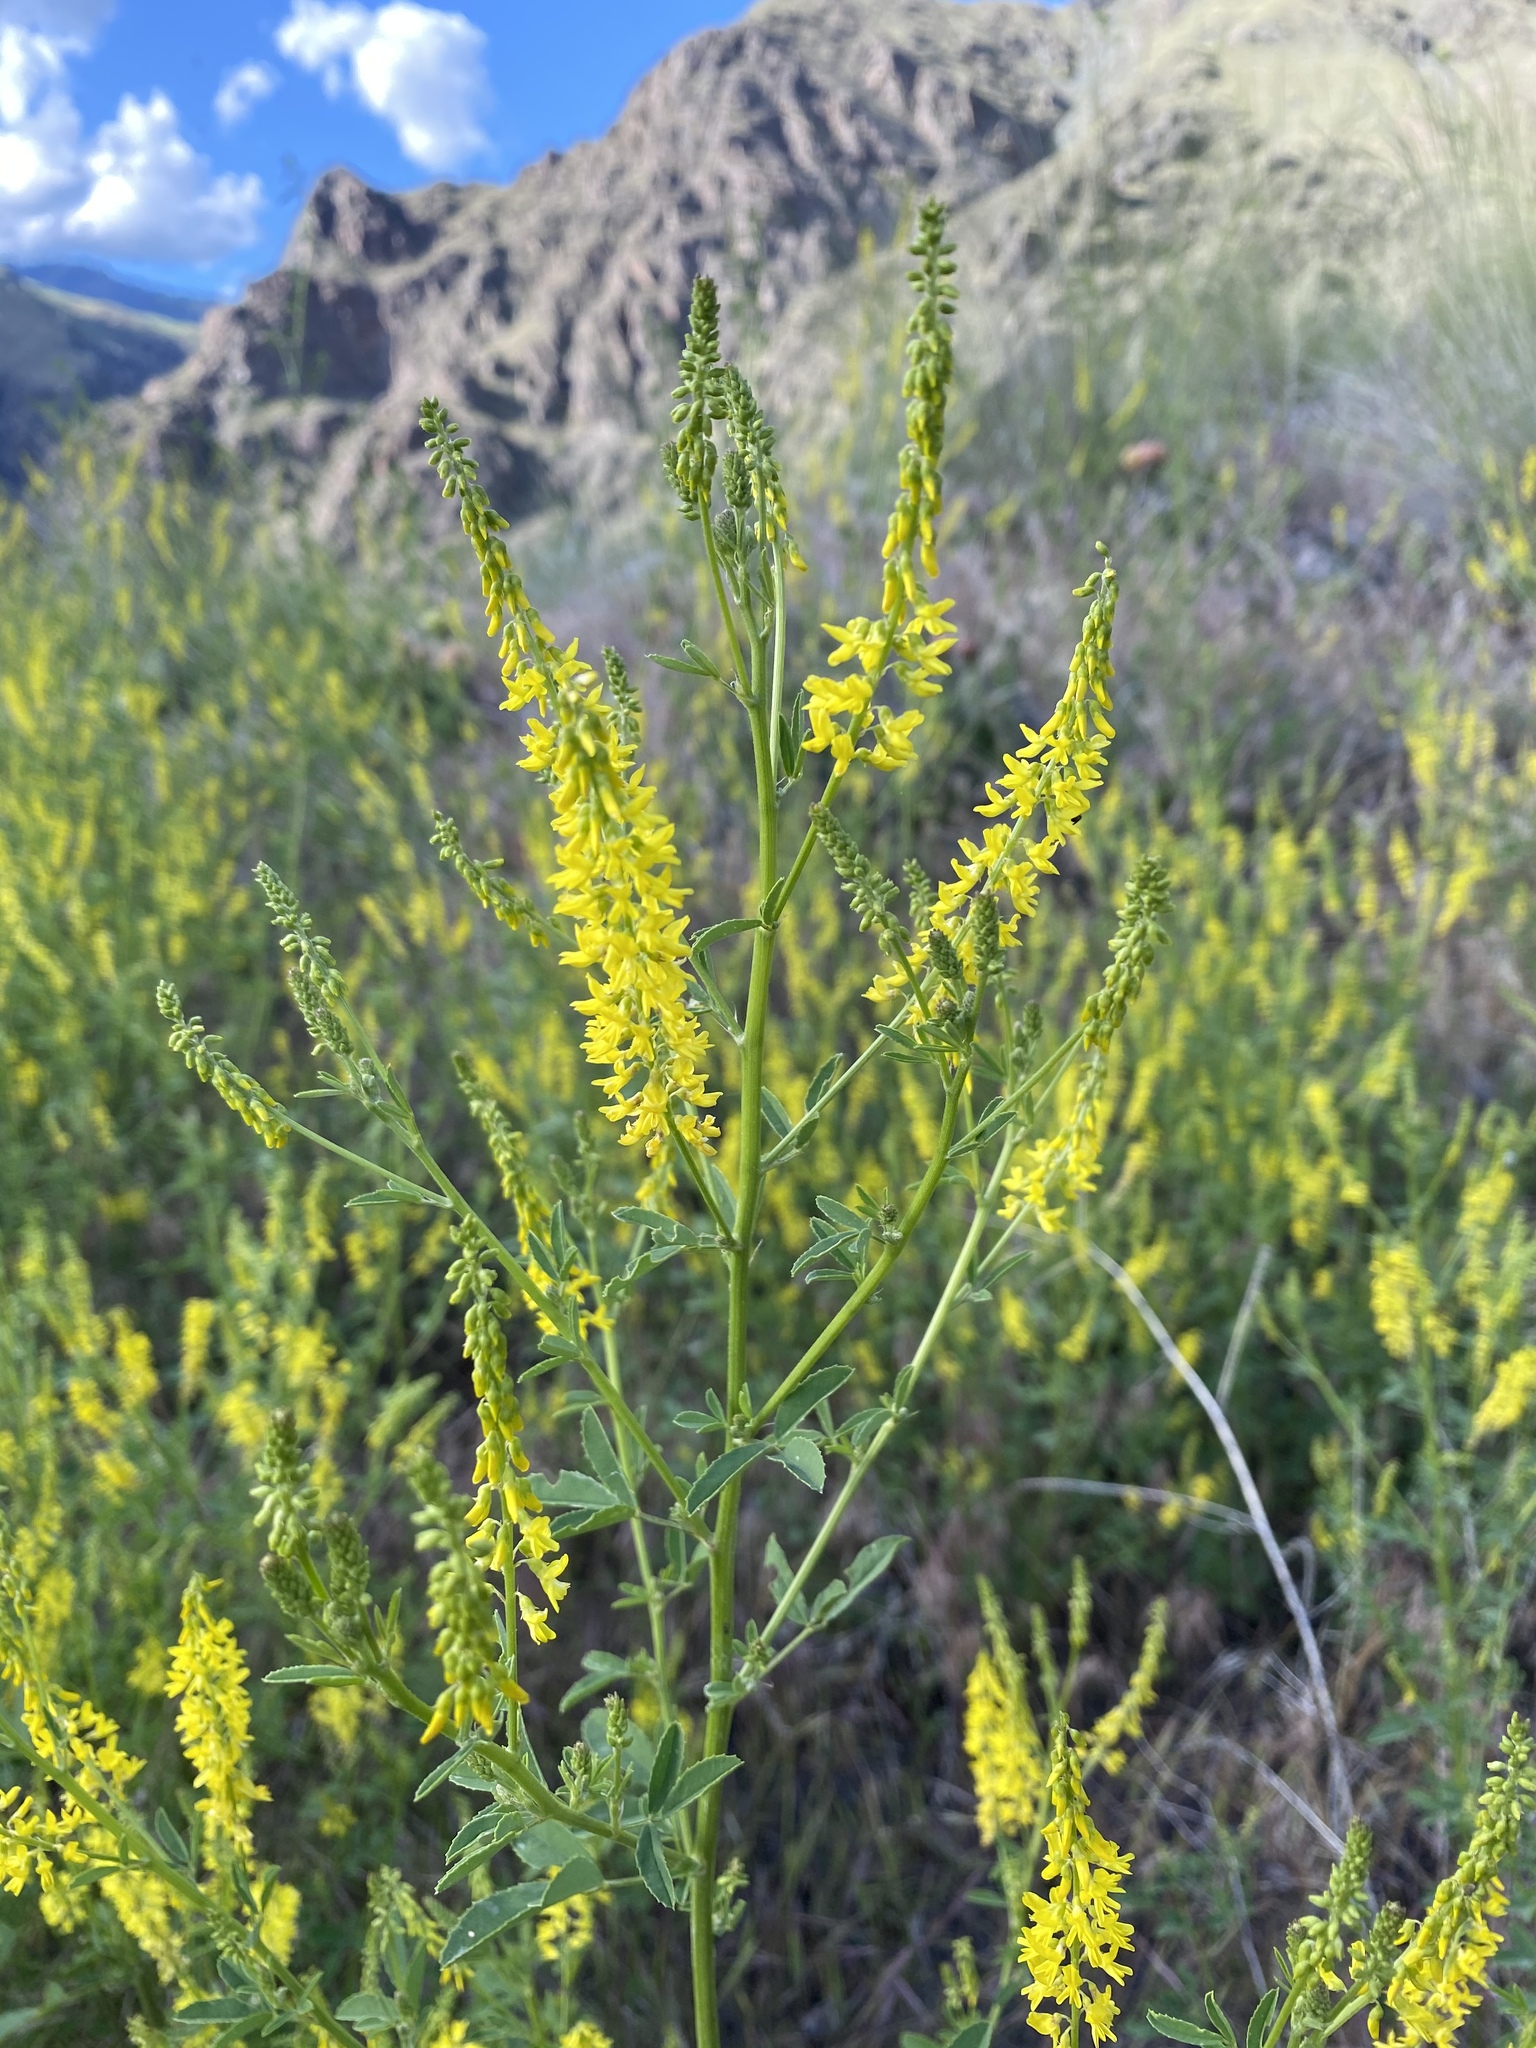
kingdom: Plantae
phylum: Tracheophyta
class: Magnoliopsida
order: Fabales
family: Fabaceae
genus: Melilotus
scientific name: Melilotus officinalis
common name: Sweetclover
